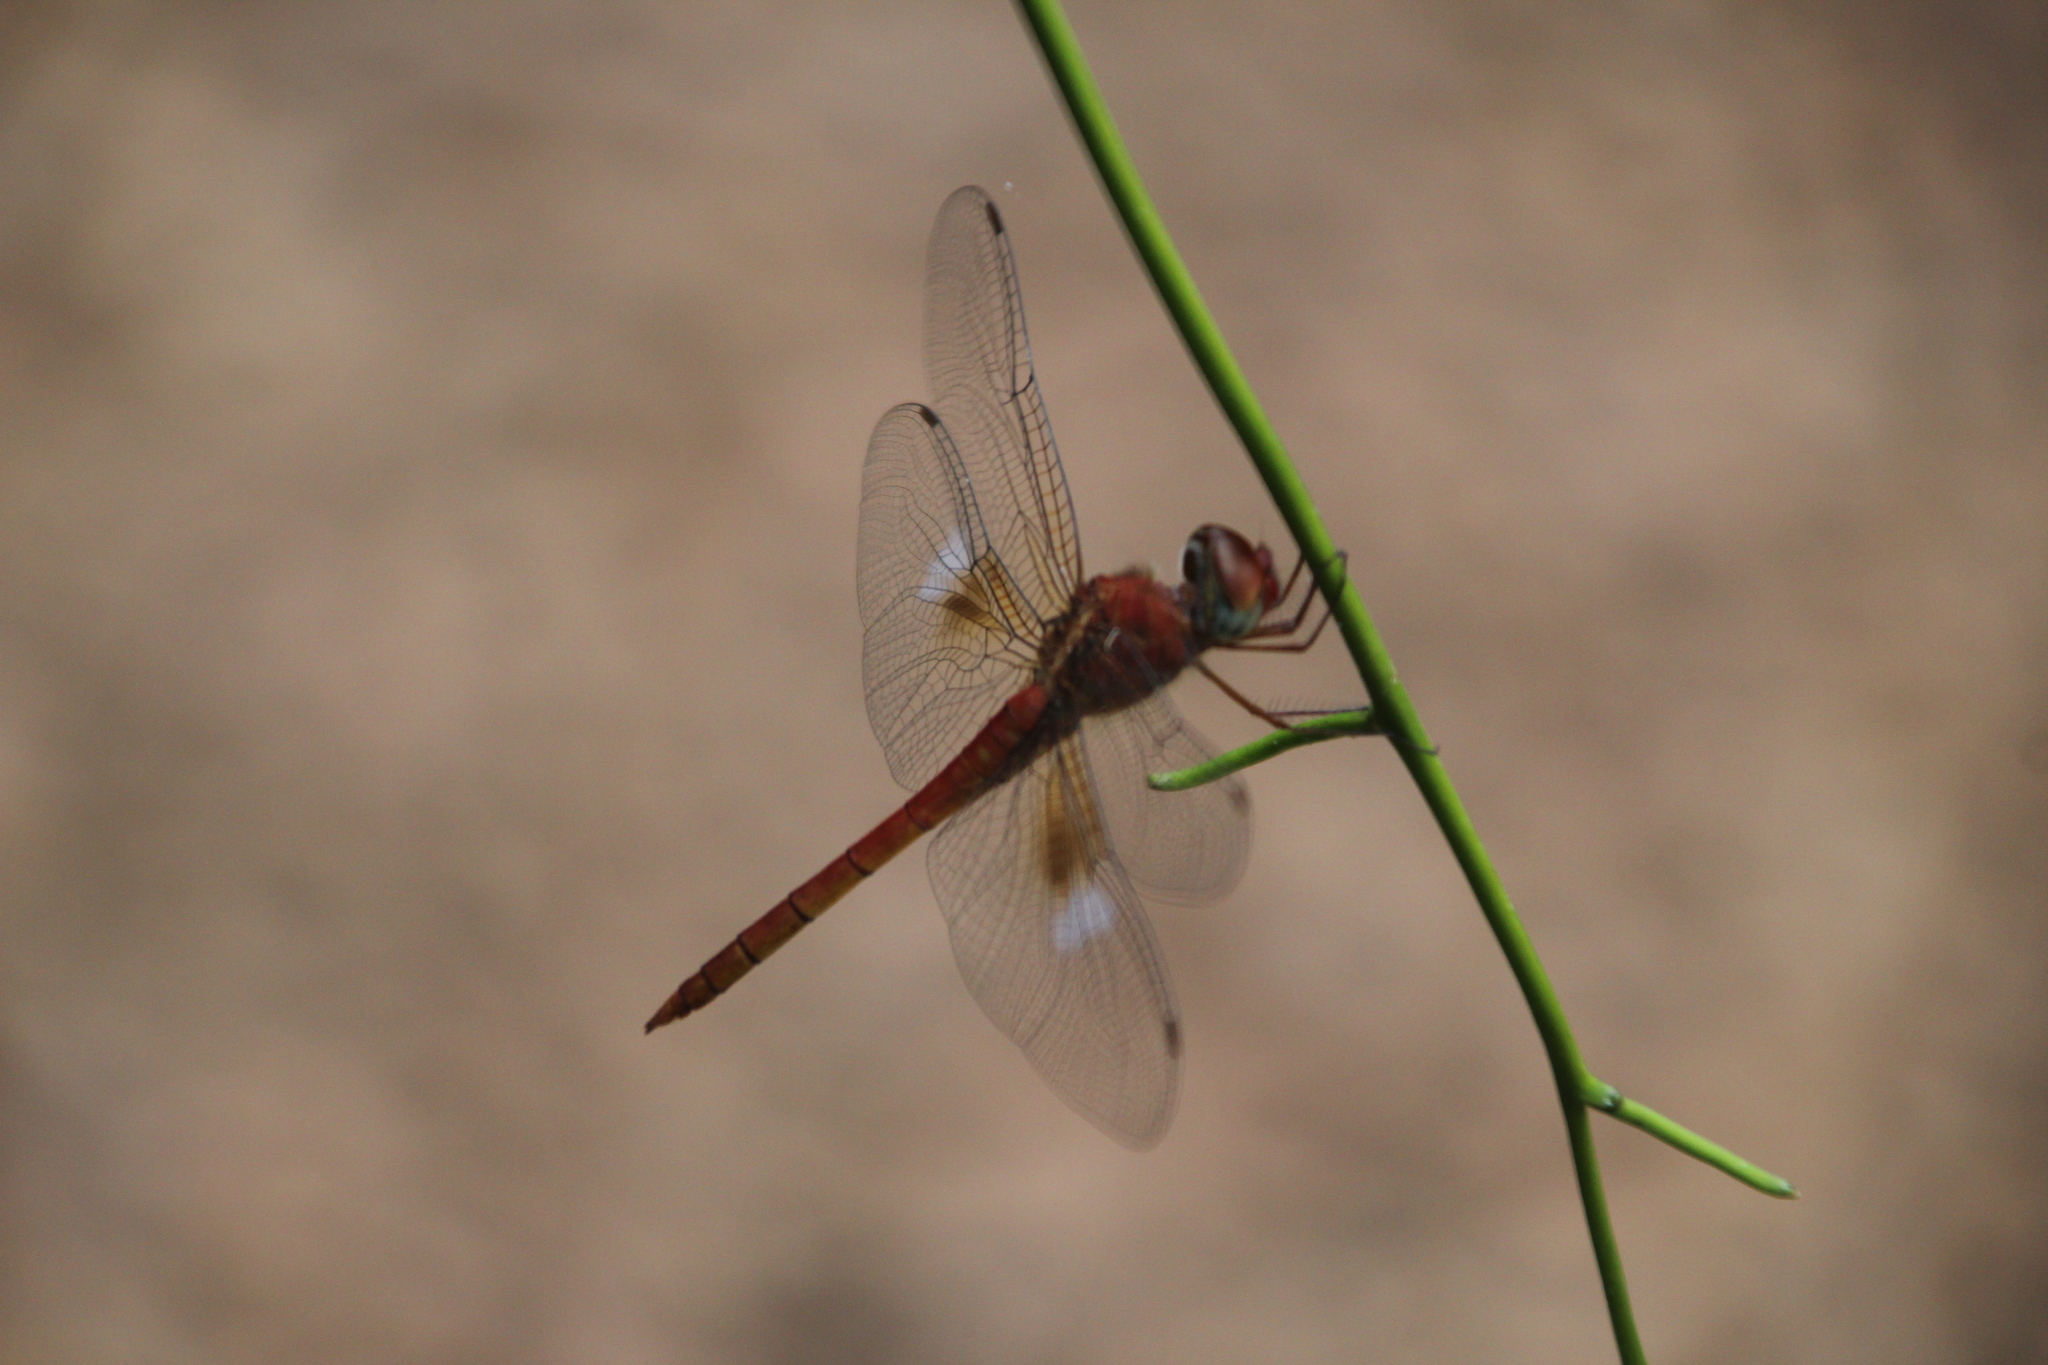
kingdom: Animalia
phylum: Arthropoda
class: Insecta
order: Odonata
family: Libellulidae
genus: Tholymis
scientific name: Tholymis tillarga
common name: Coral-tailed cloud wing
